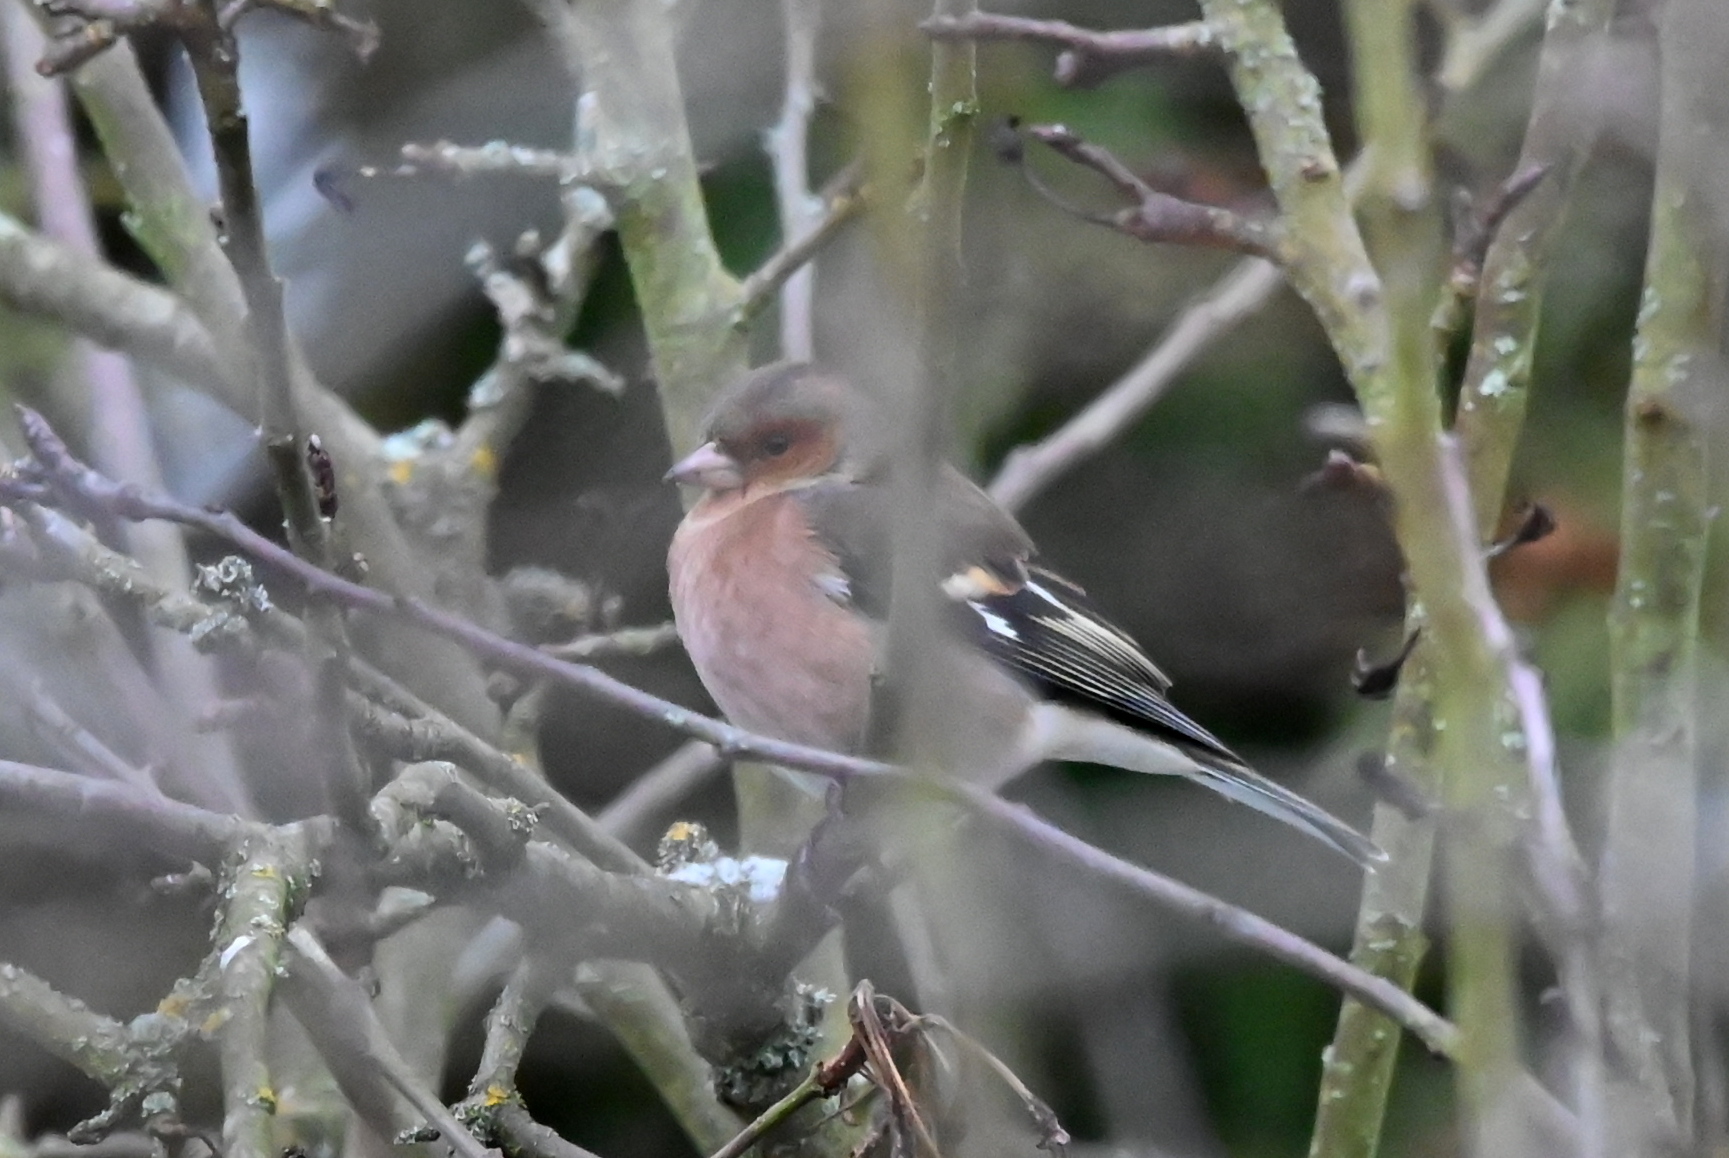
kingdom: Animalia
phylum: Chordata
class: Aves
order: Passeriformes
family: Fringillidae
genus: Fringilla
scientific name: Fringilla coelebs
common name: Common chaffinch
